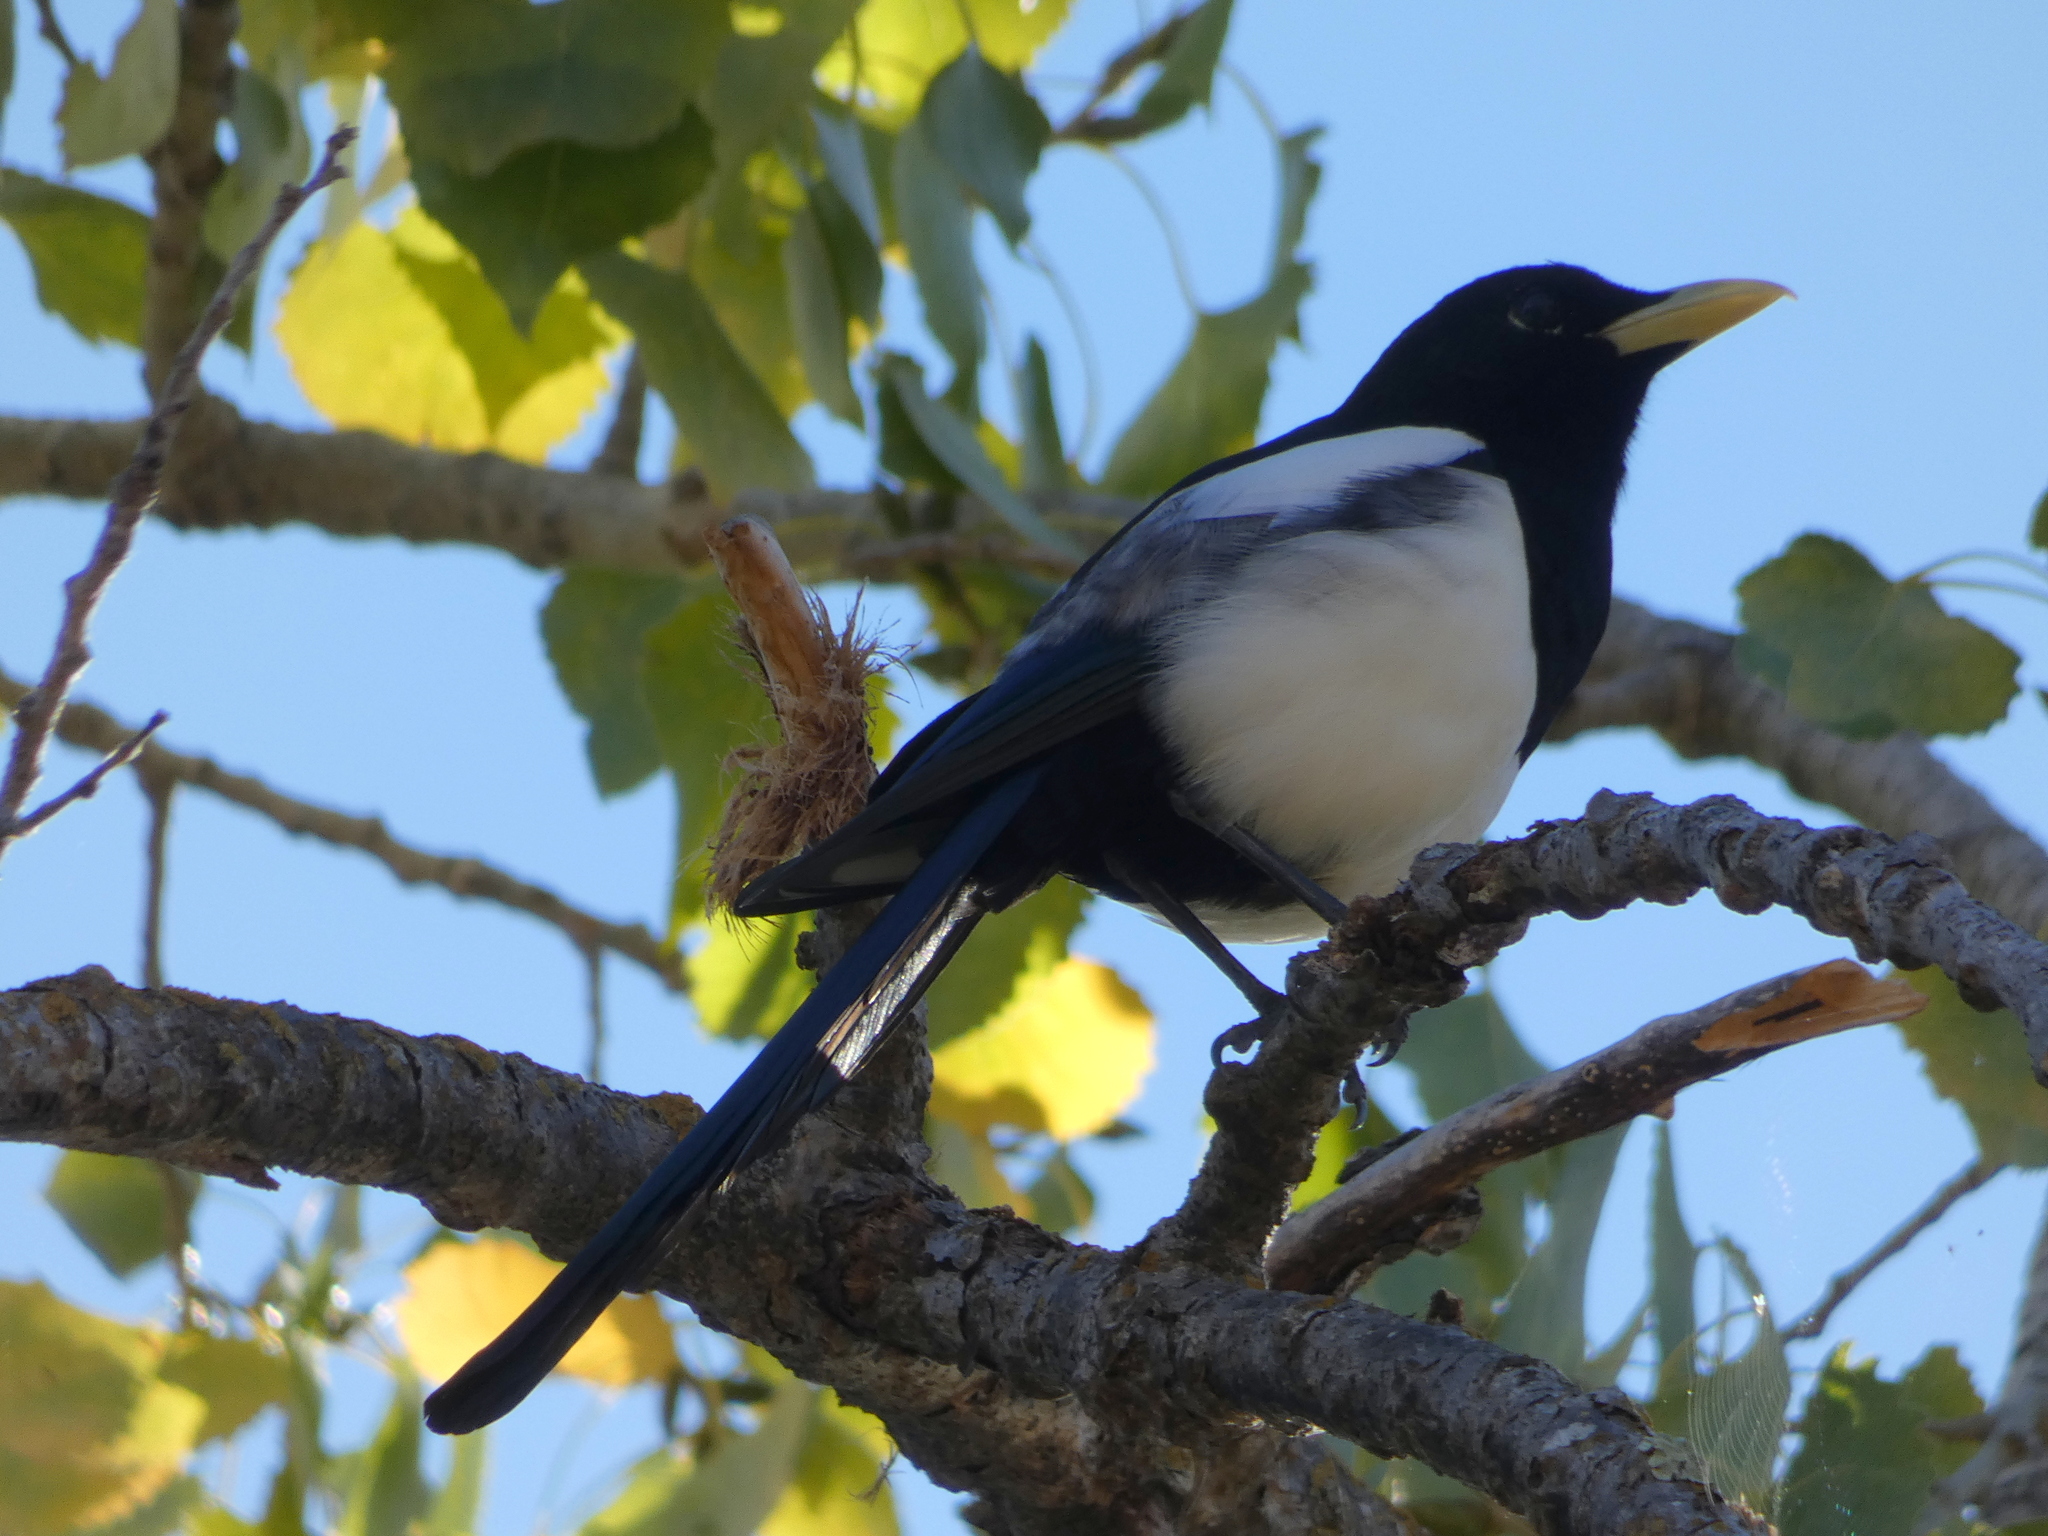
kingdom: Animalia
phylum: Chordata
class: Aves
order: Passeriformes
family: Corvidae
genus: Pica
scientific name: Pica nuttalli
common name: Yellow-billed magpie
